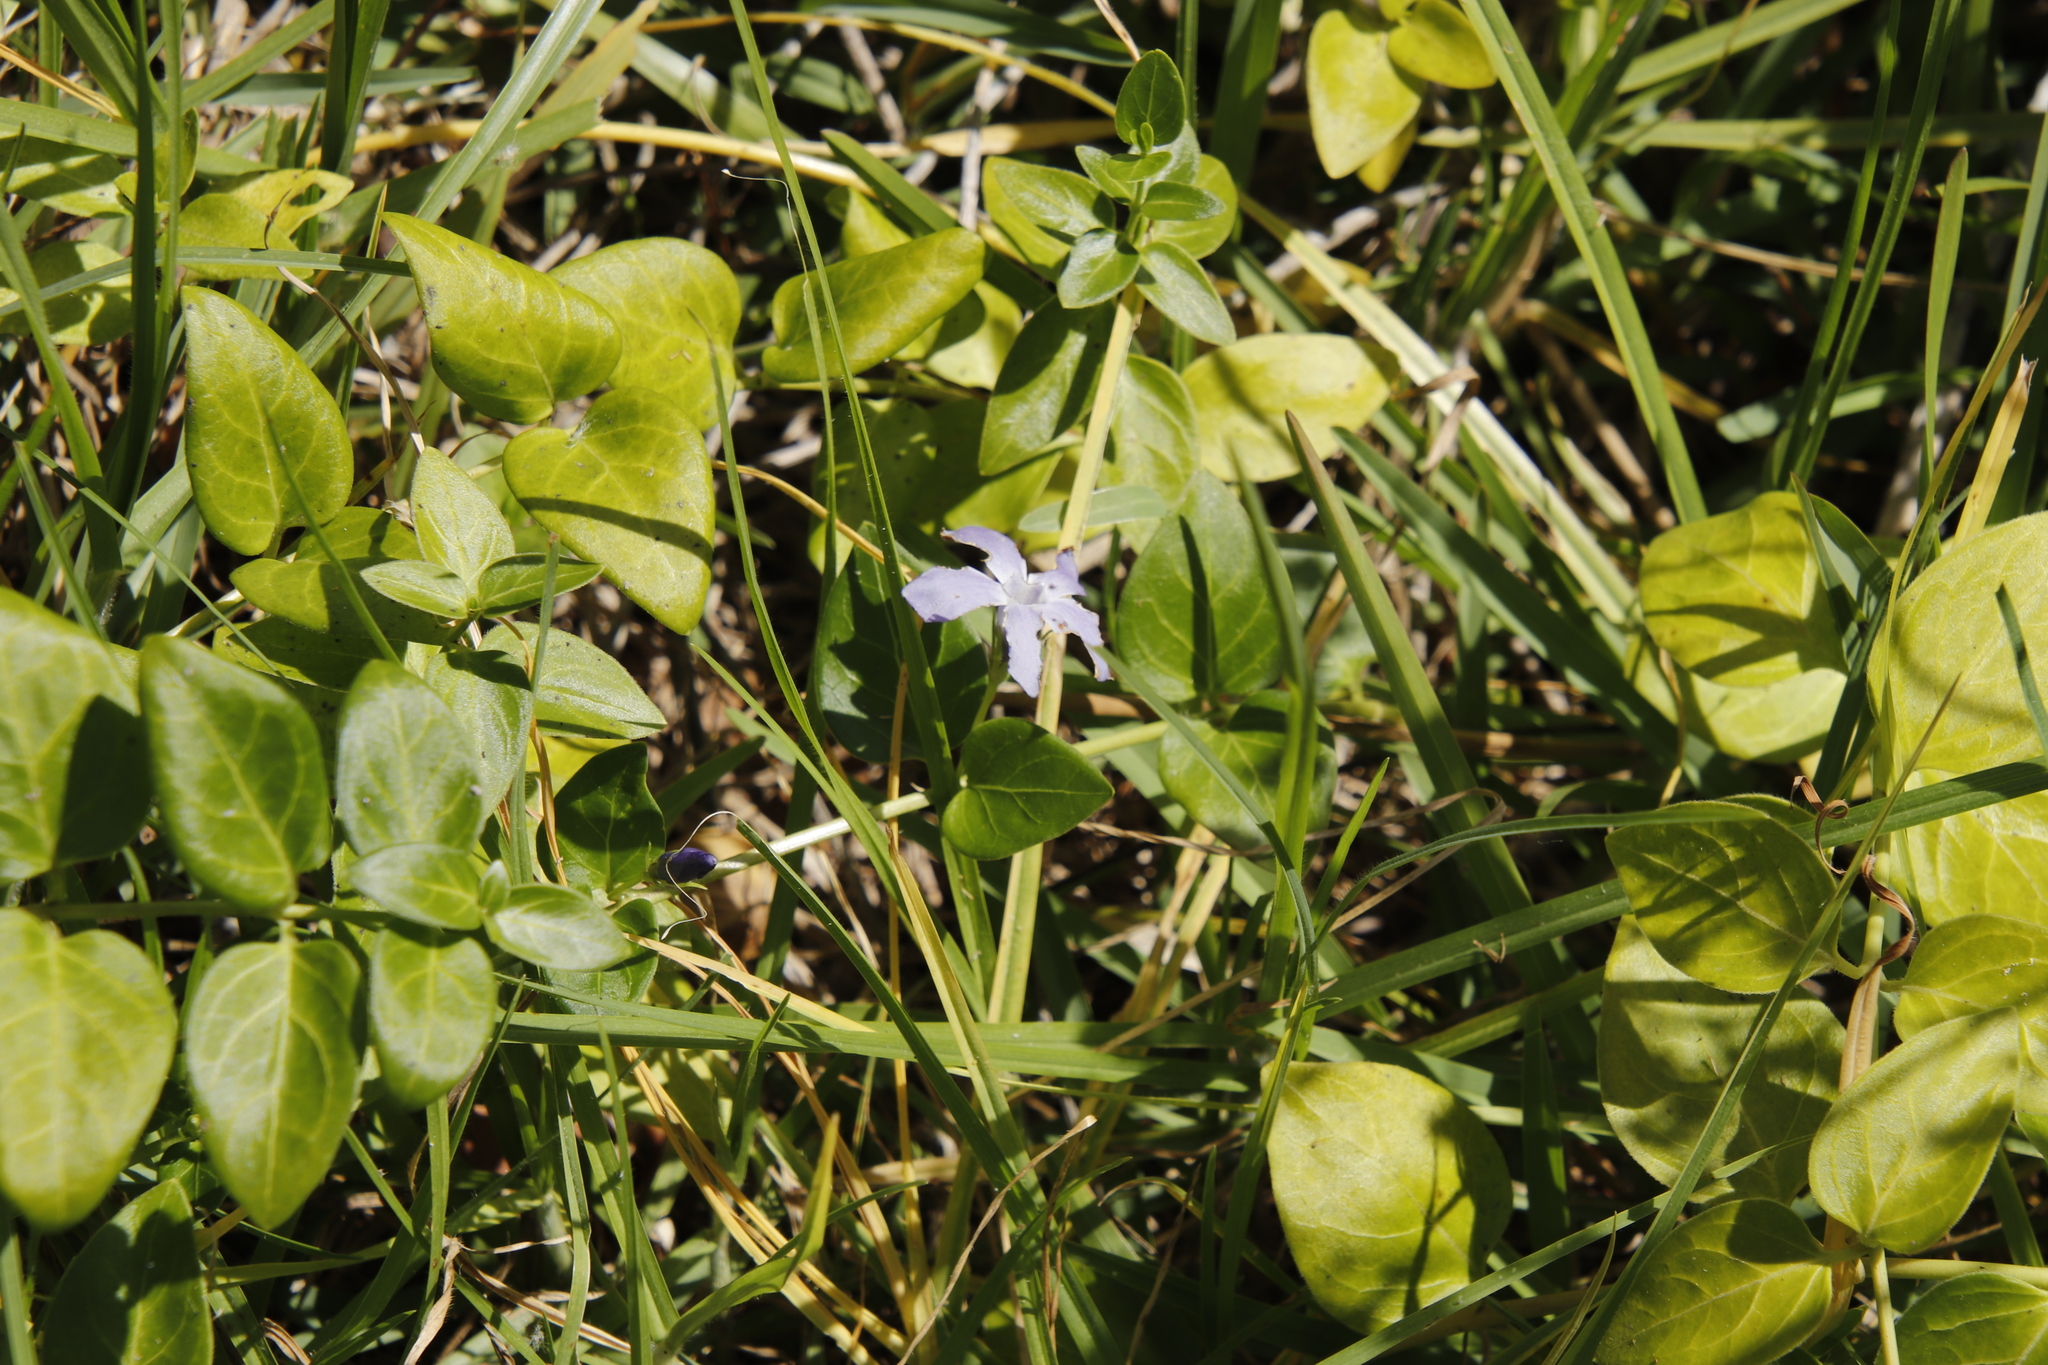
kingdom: Plantae
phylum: Tracheophyta
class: Magnoliopsida
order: Gentianales
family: Apocynaceae
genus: Vinca
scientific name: Vinca major
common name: Greater periwinkle
